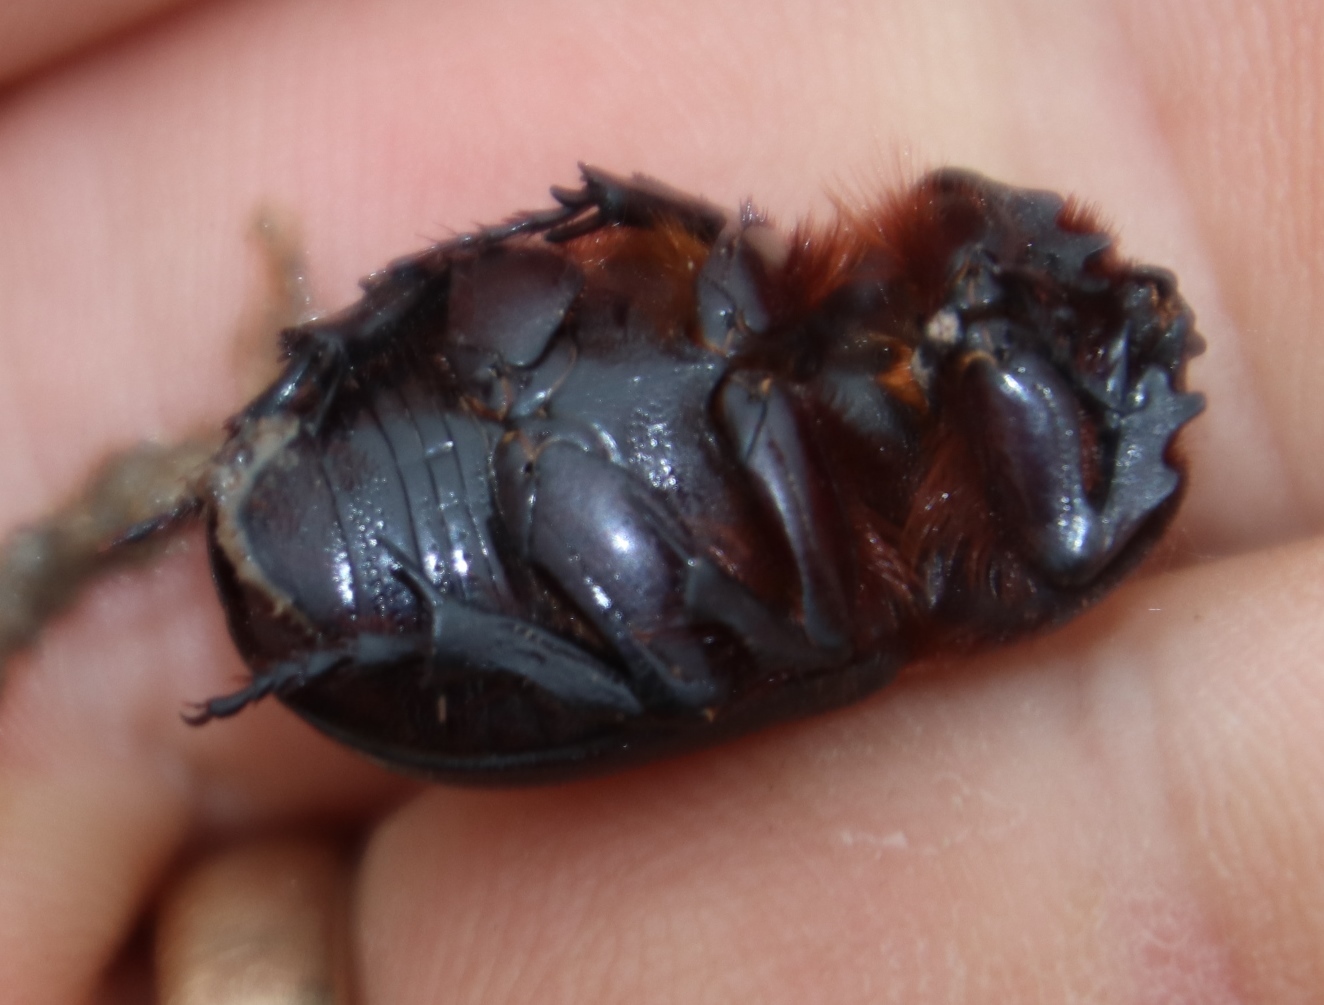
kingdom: Animalia
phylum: Arthropoda
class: Insecta
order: Coleoptera
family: Scarabaeidae
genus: Kirprellius
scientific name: Kirprellius syrichtus
